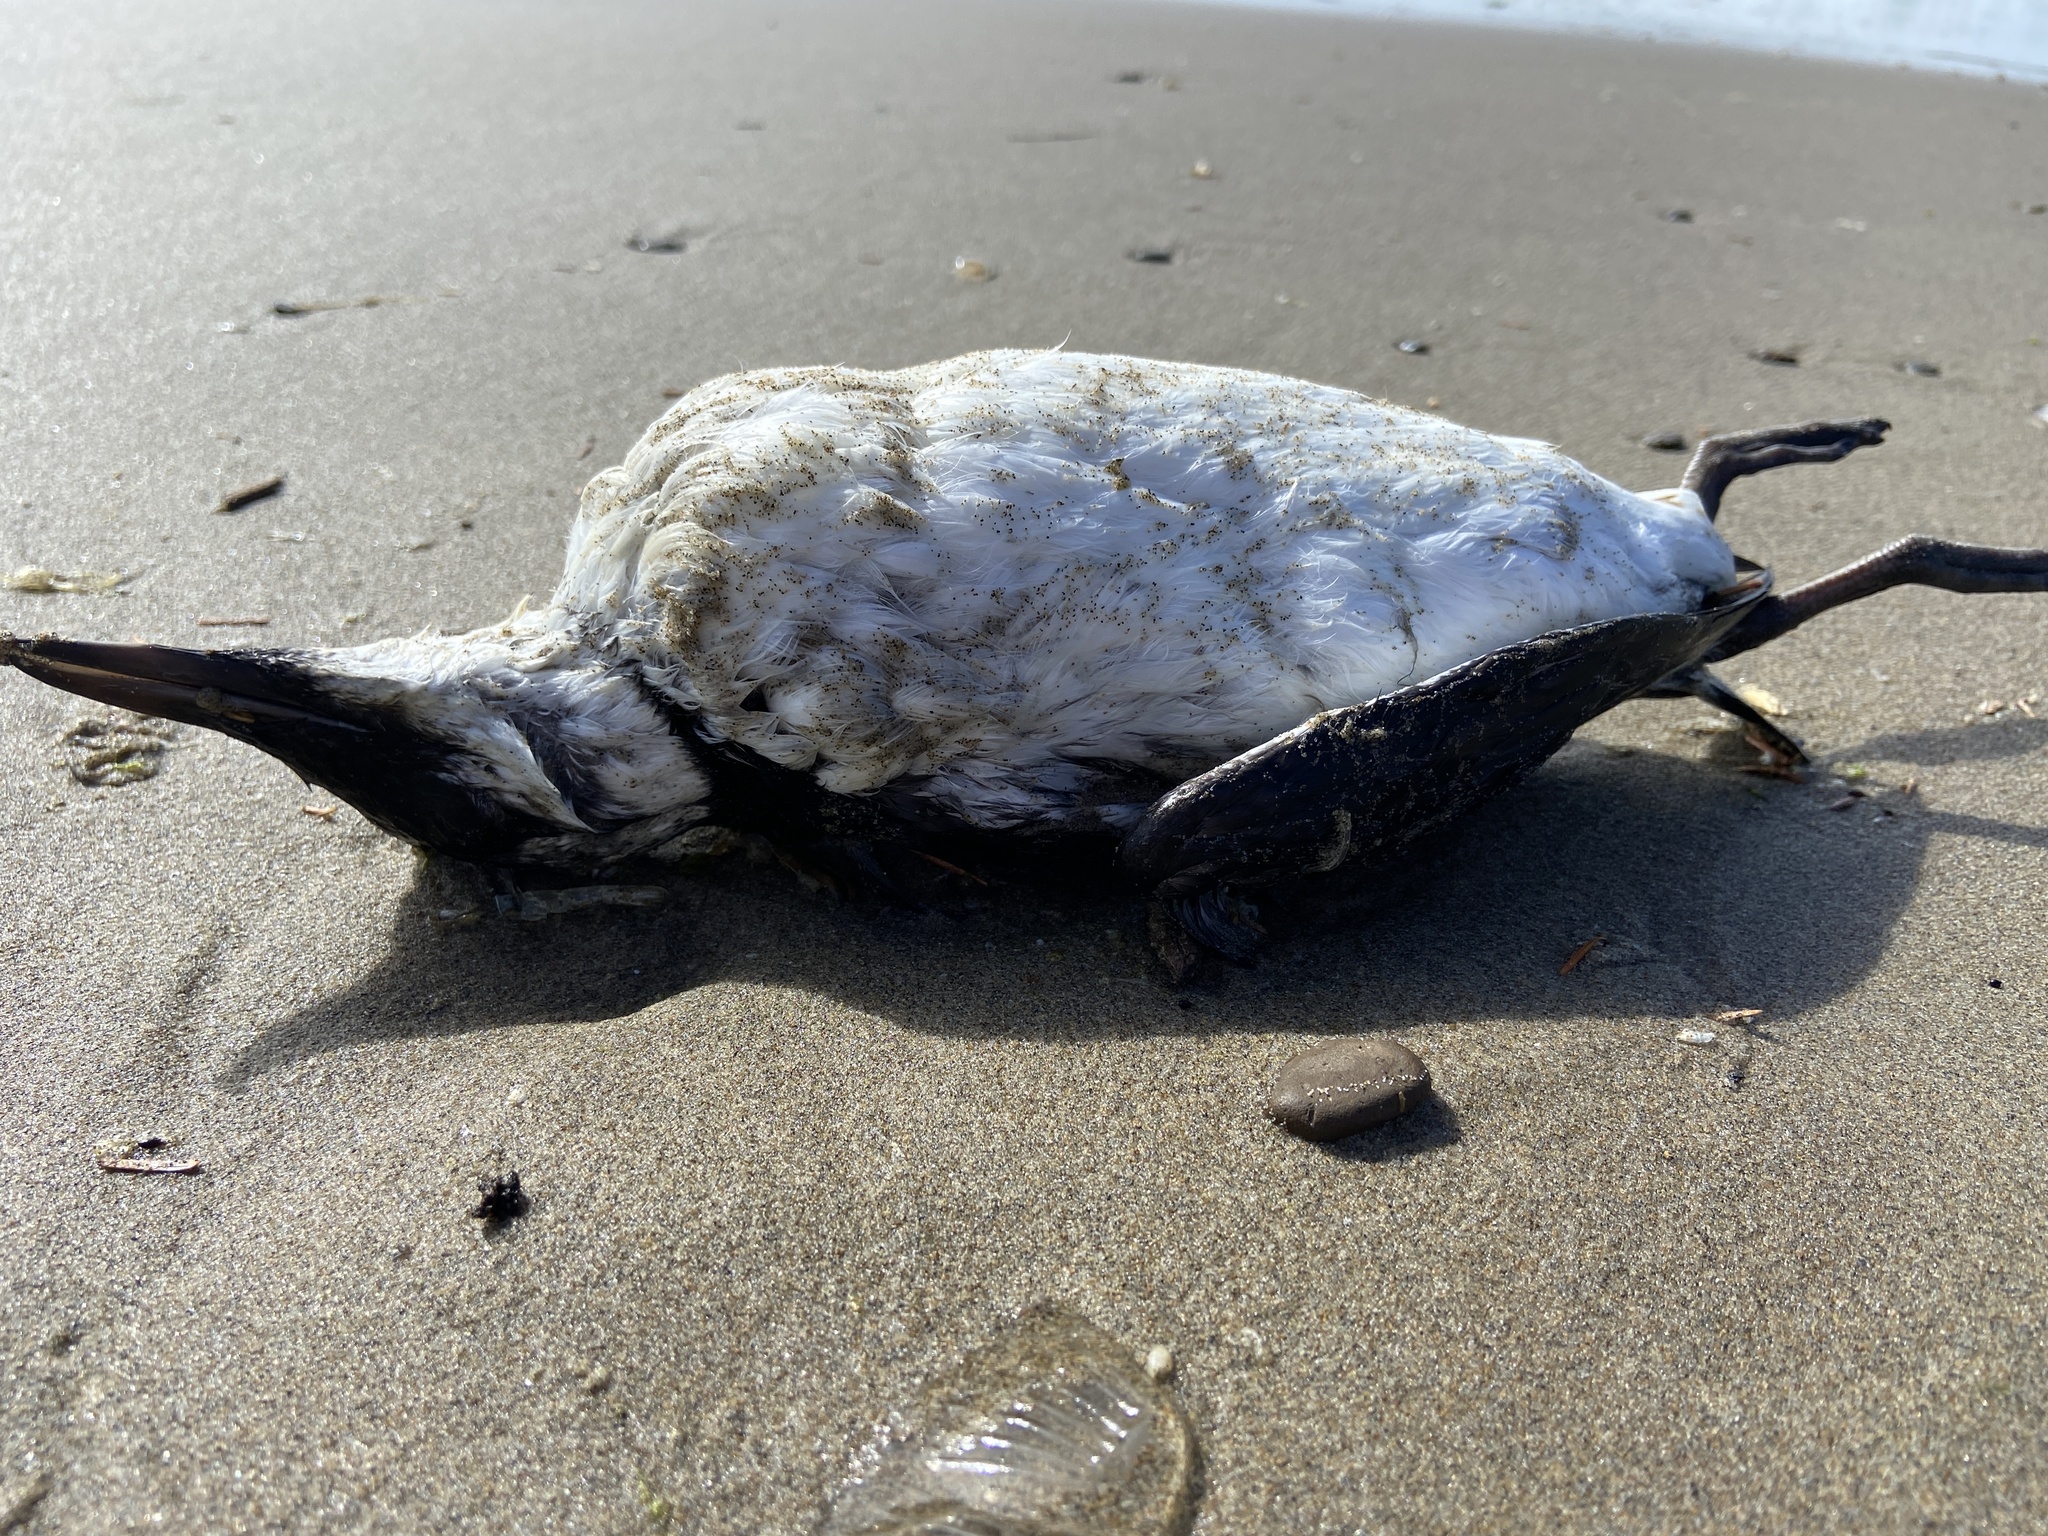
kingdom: Animalia
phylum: Chordata
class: Aves
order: Charadriiformes
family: Alcidae
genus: Uria
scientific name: Uria aalge
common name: Common murre
